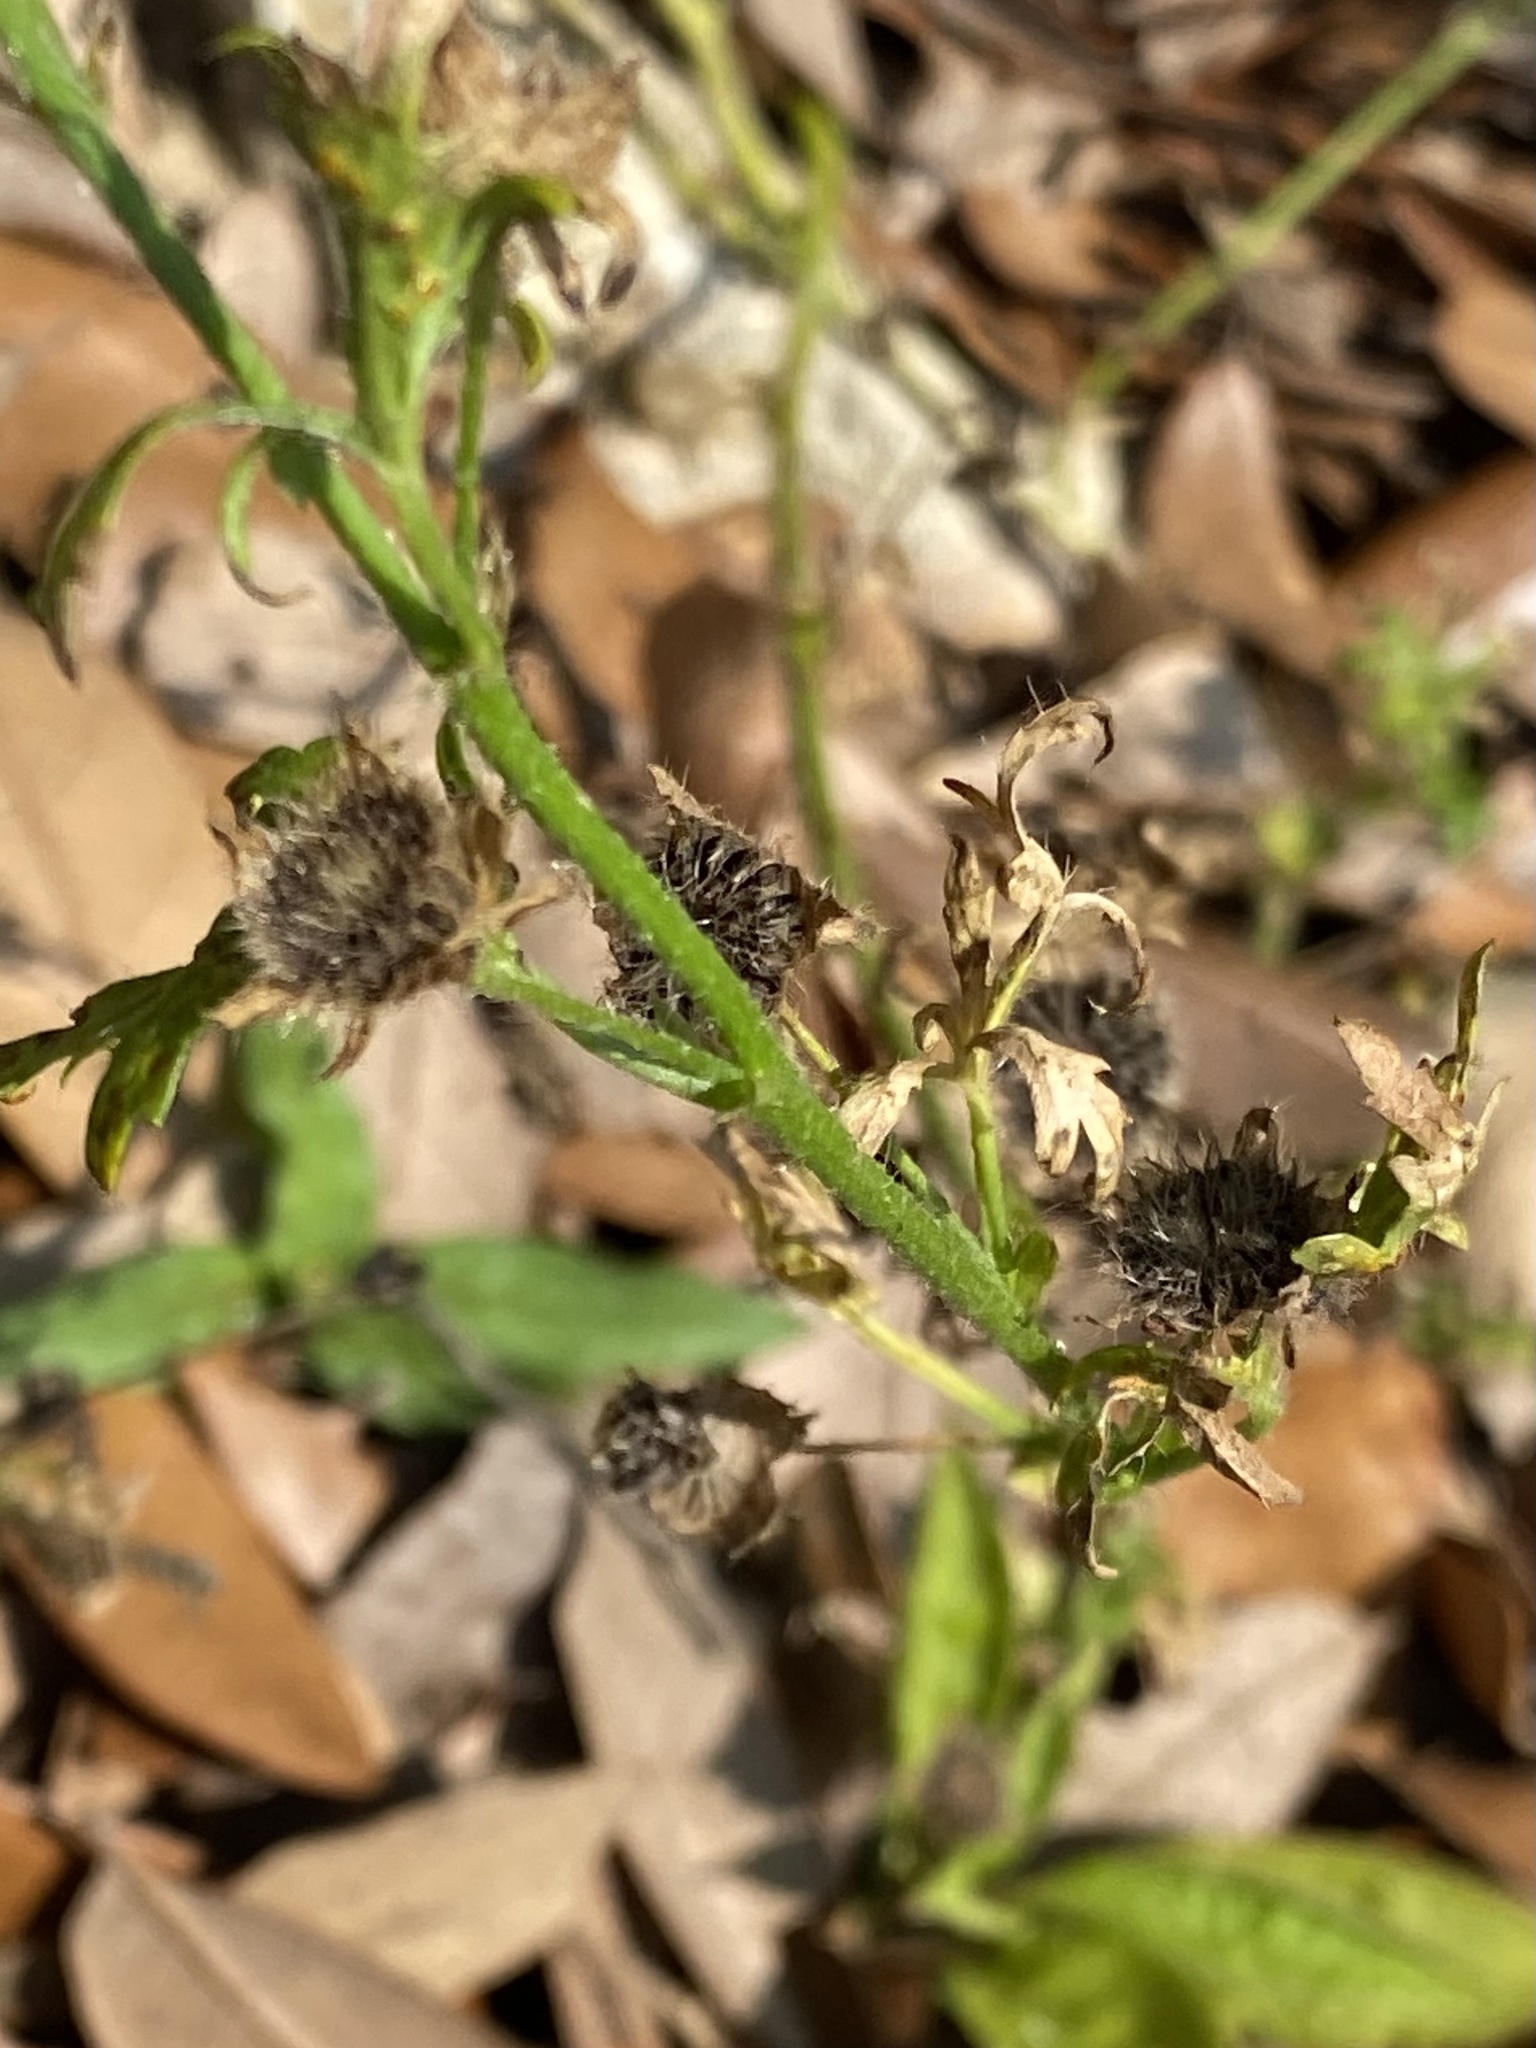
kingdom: Plantae
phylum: Tracheophyta
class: Magnoliopsida
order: Malvales
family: Malvaceae
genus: Modiola
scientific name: Modiola caroliniana
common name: Carolina bristlemallow
